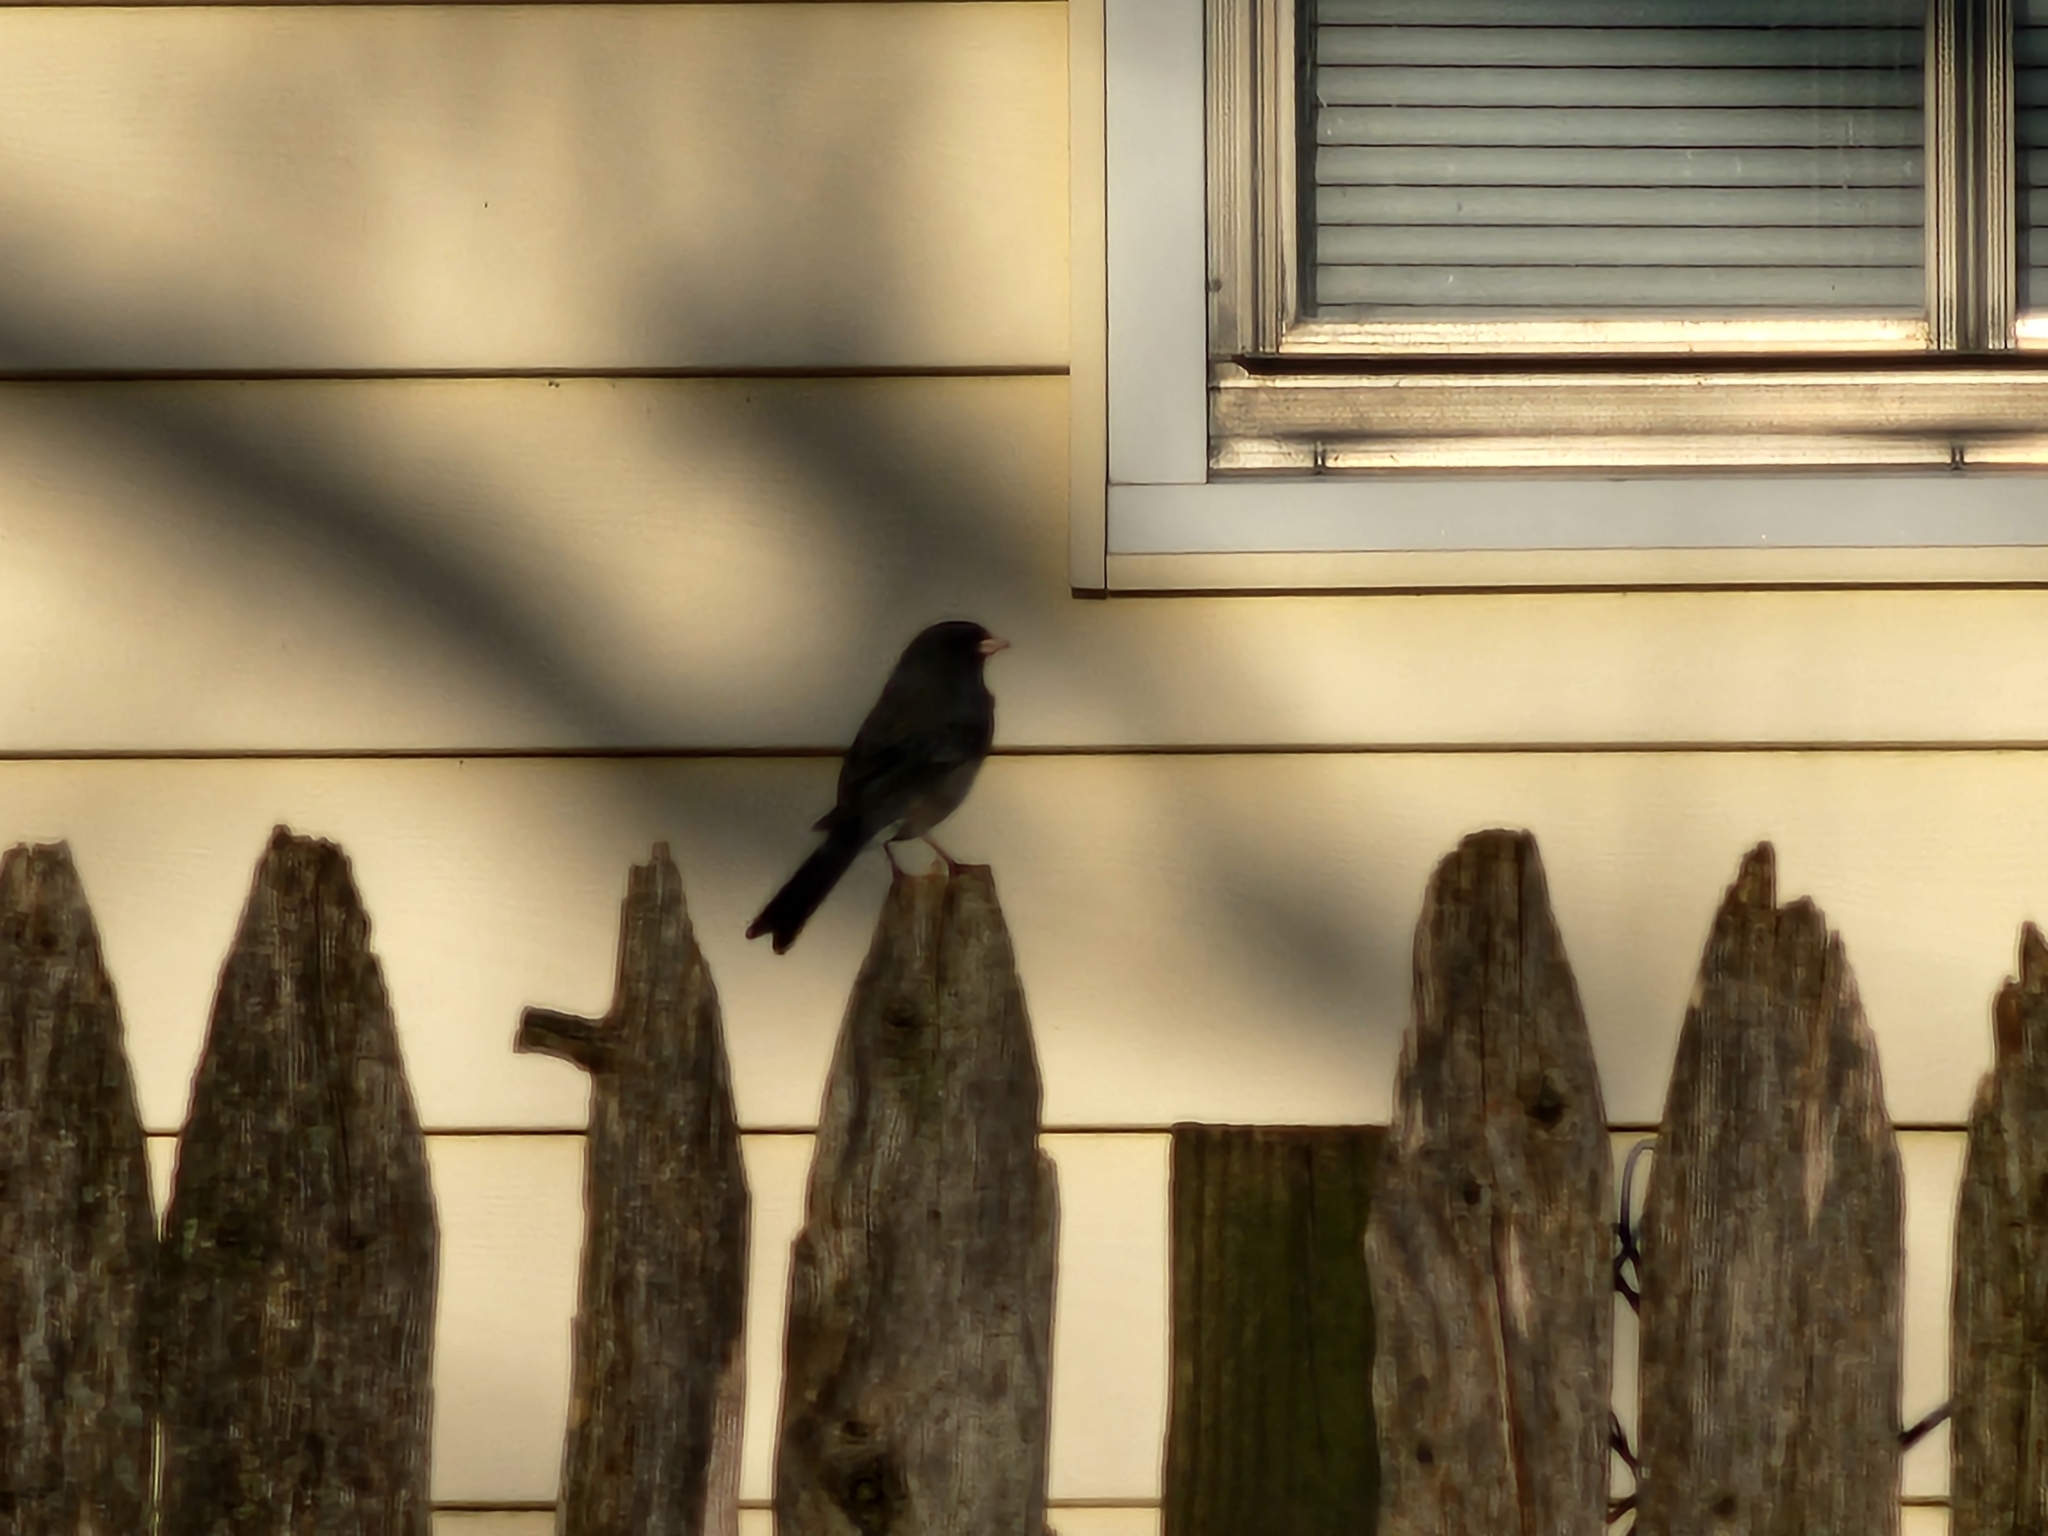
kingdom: Animalia
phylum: Chordata
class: Aves
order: Passeriformes
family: Passerellidae
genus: Junco
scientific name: Junco hyemalis
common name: Dark-eyed junco
